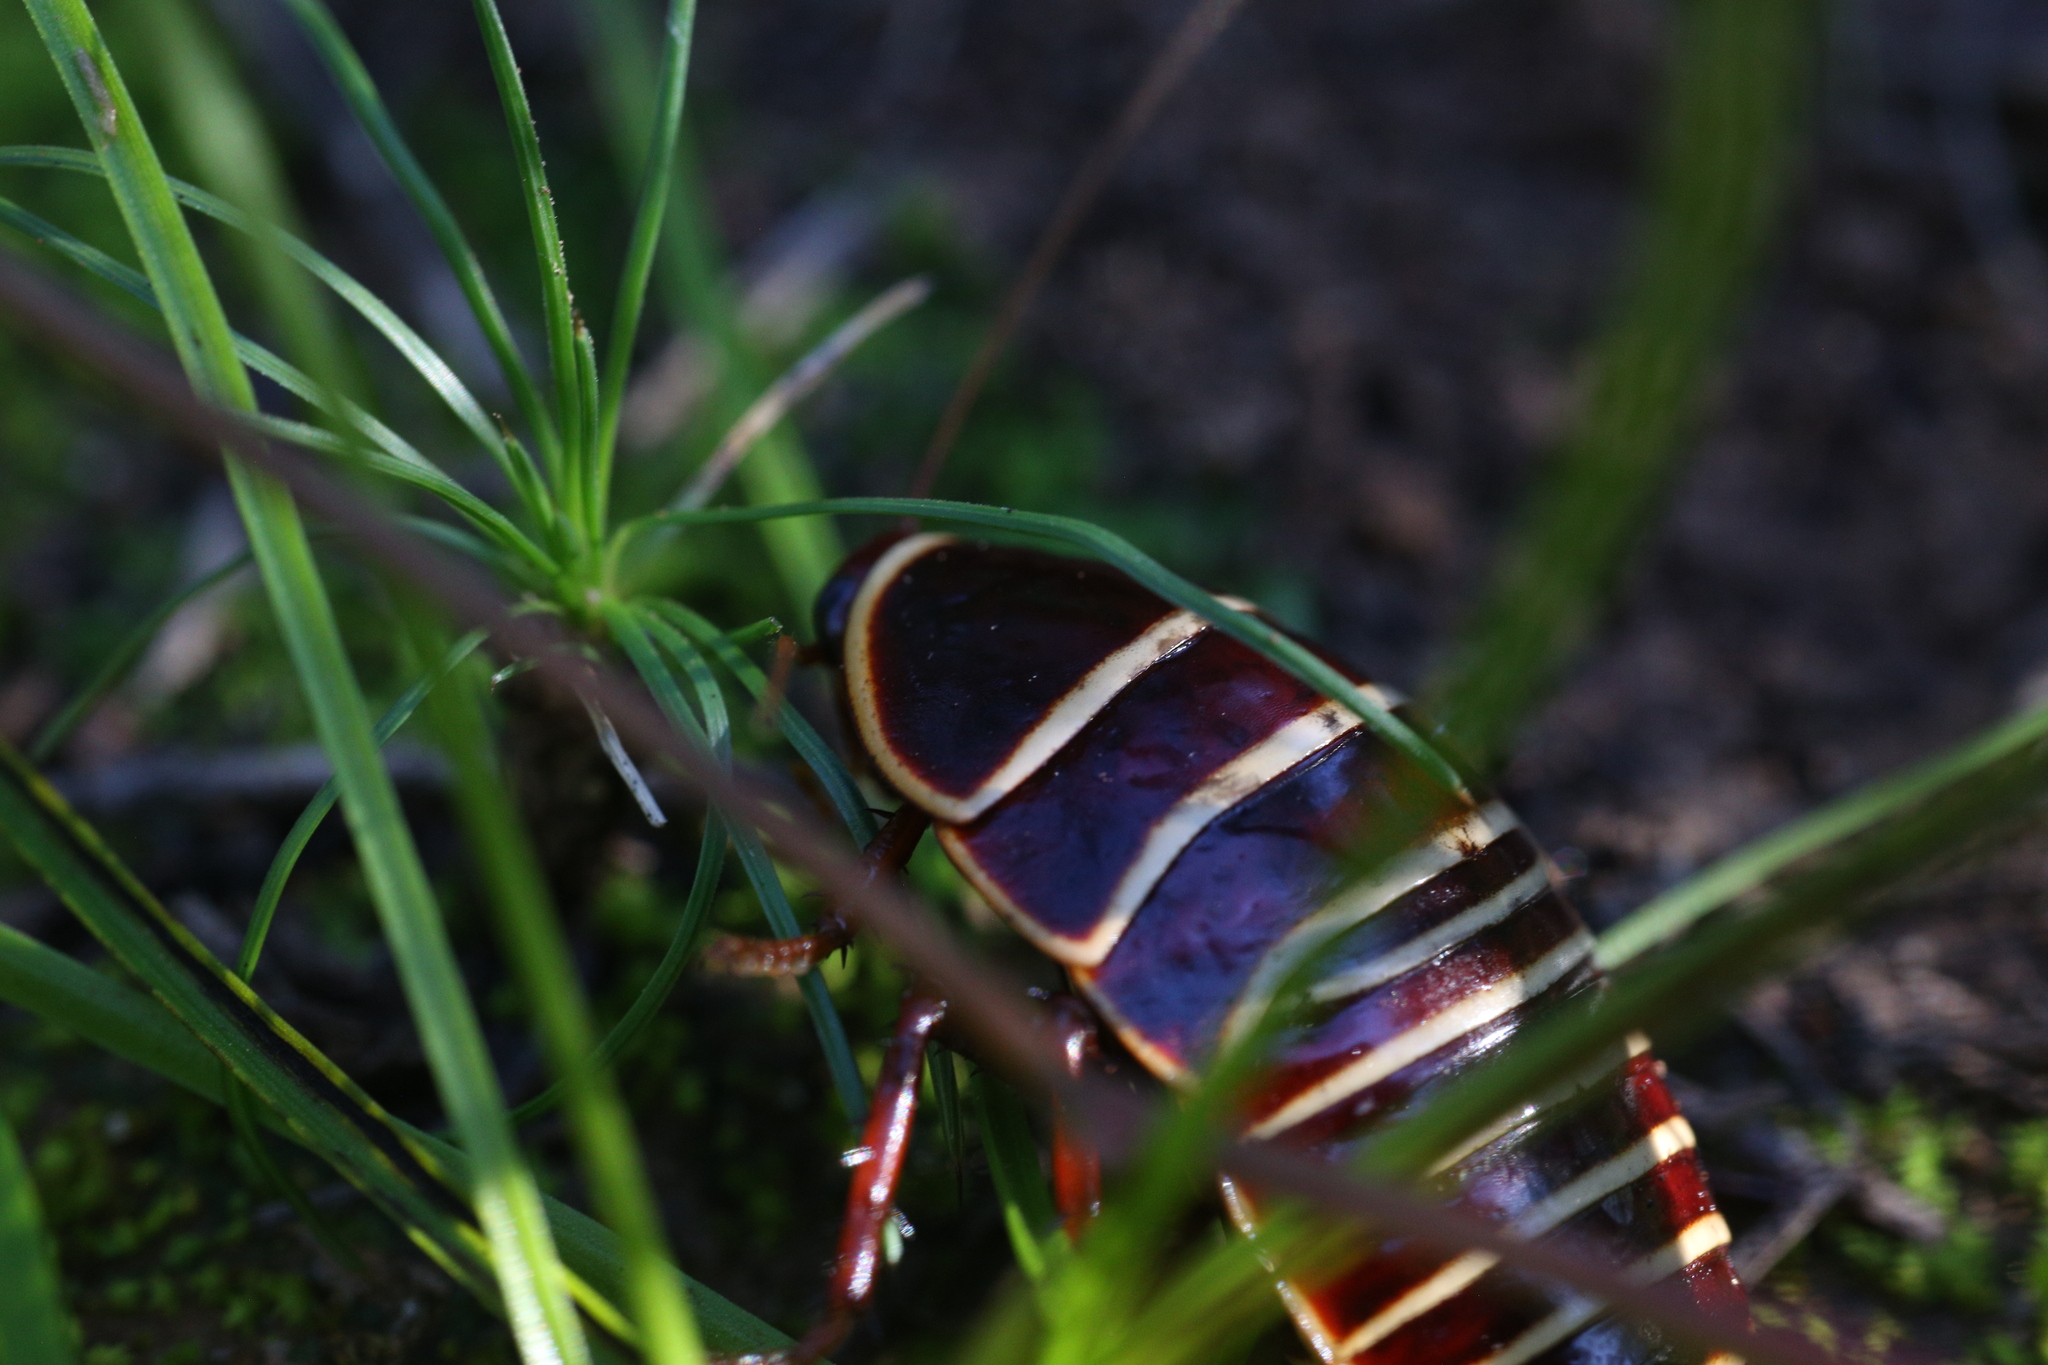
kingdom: Animalia
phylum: Arthropoda
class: Insecta
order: Blattodea
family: Blattidae
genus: Anamesia
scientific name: Anamesia polyzona
